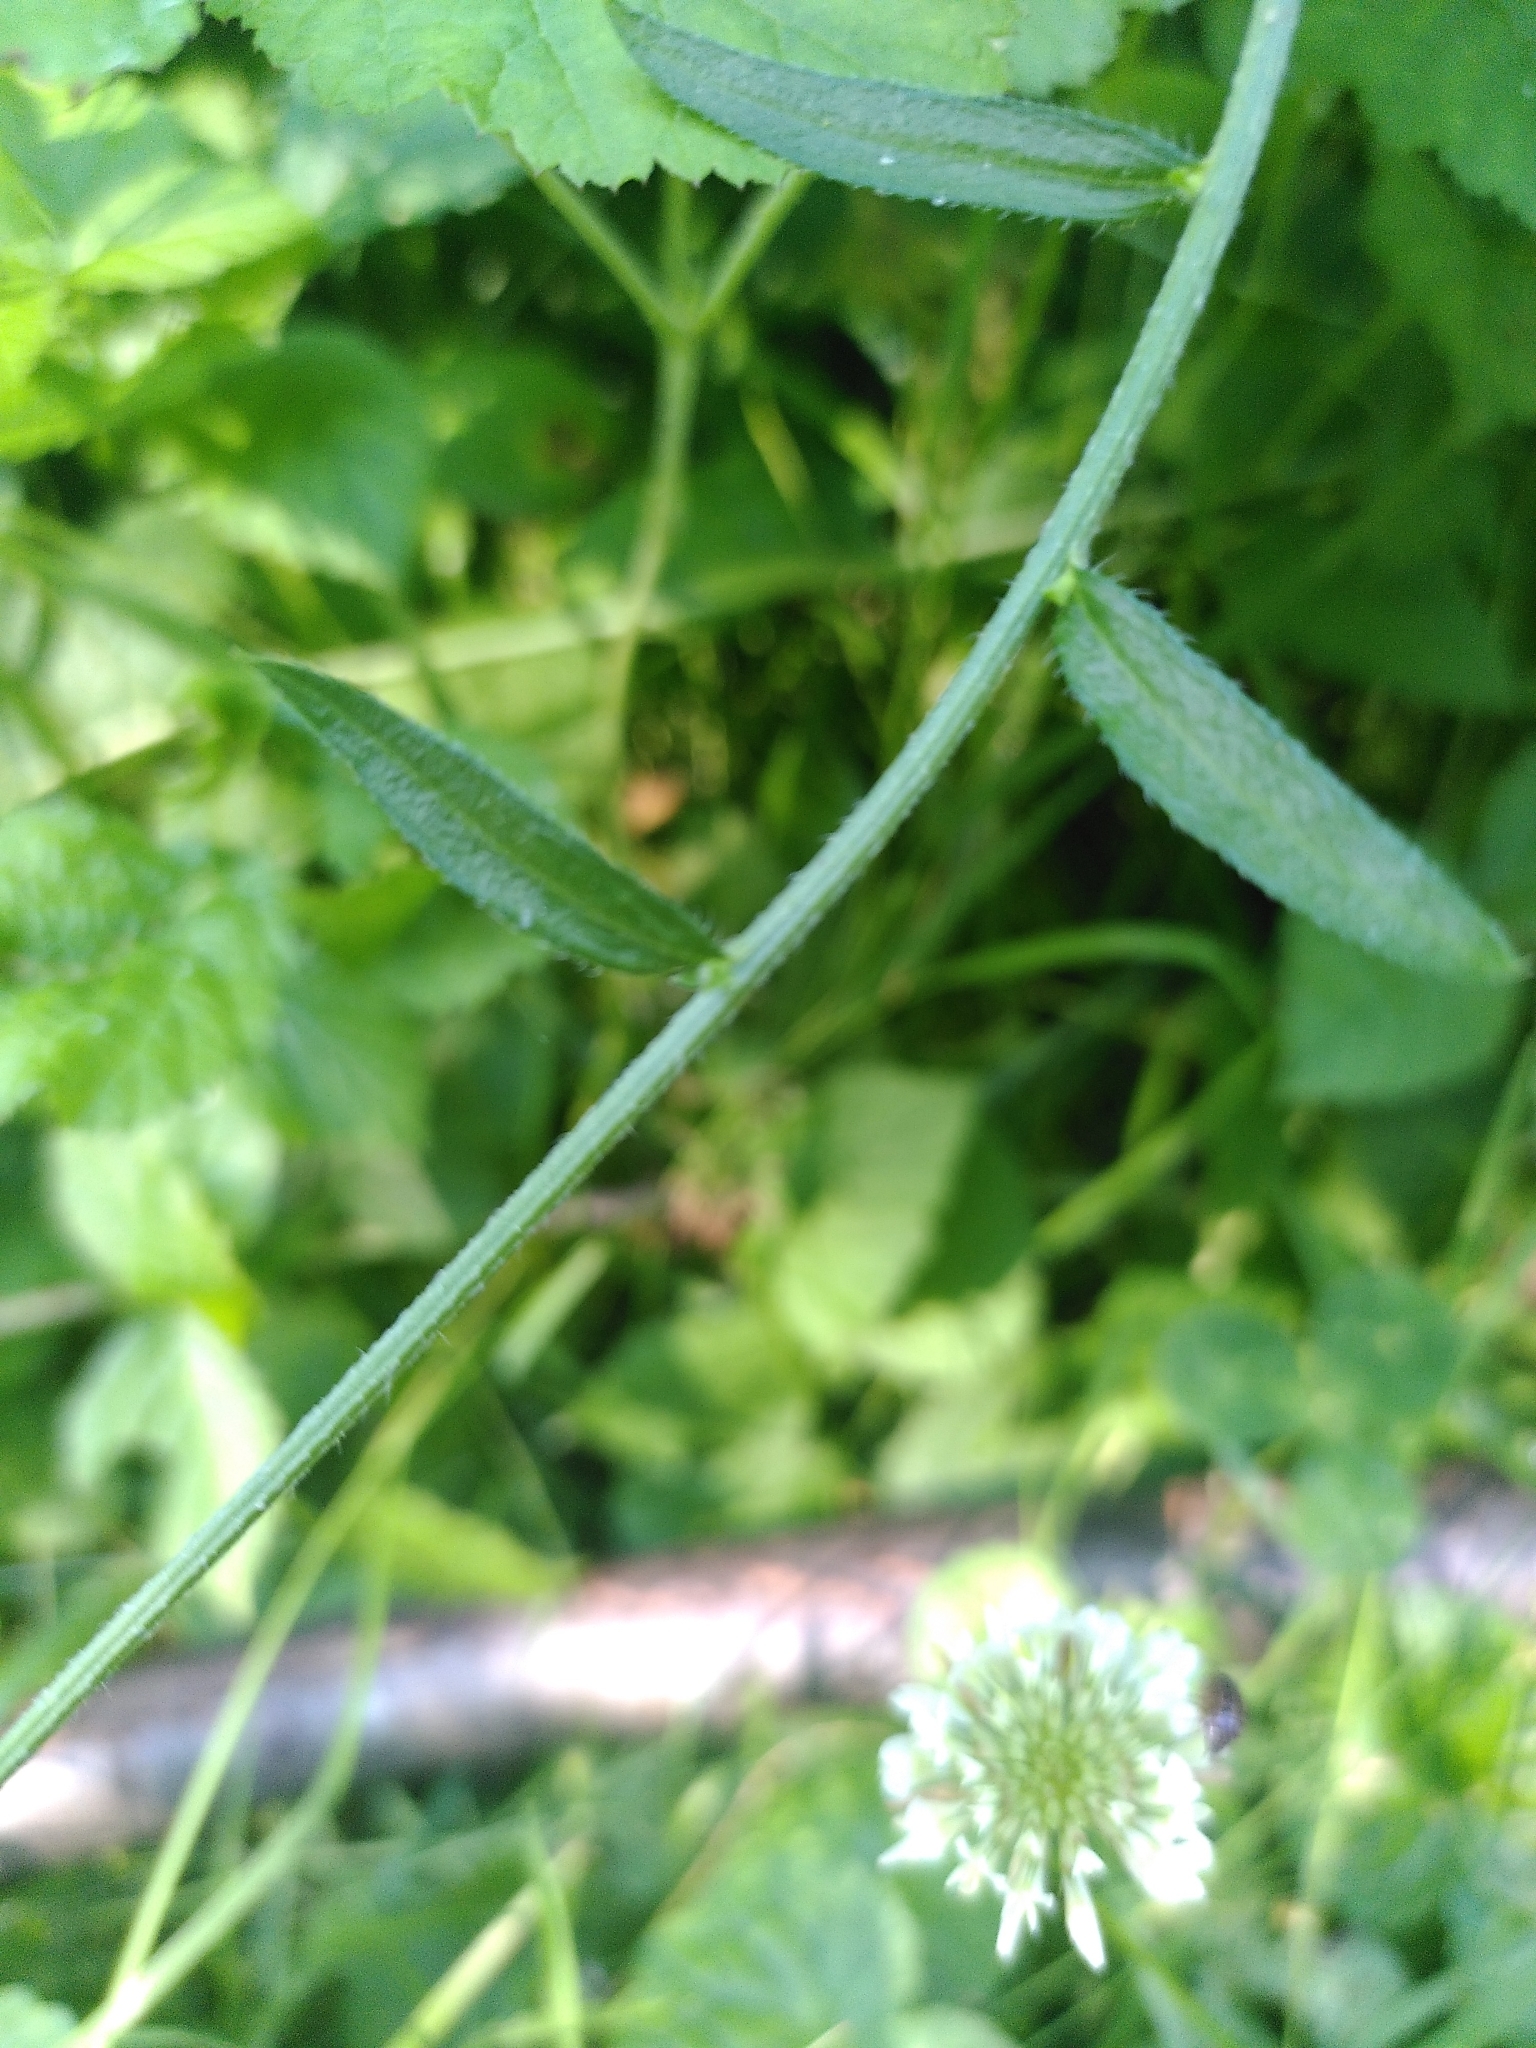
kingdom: Plantae
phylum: Tracheophyta
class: Magnoliopsida
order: Asterales
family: Asteraceae
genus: Erigeron
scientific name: Erigeron annuus
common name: Tall fleabane
